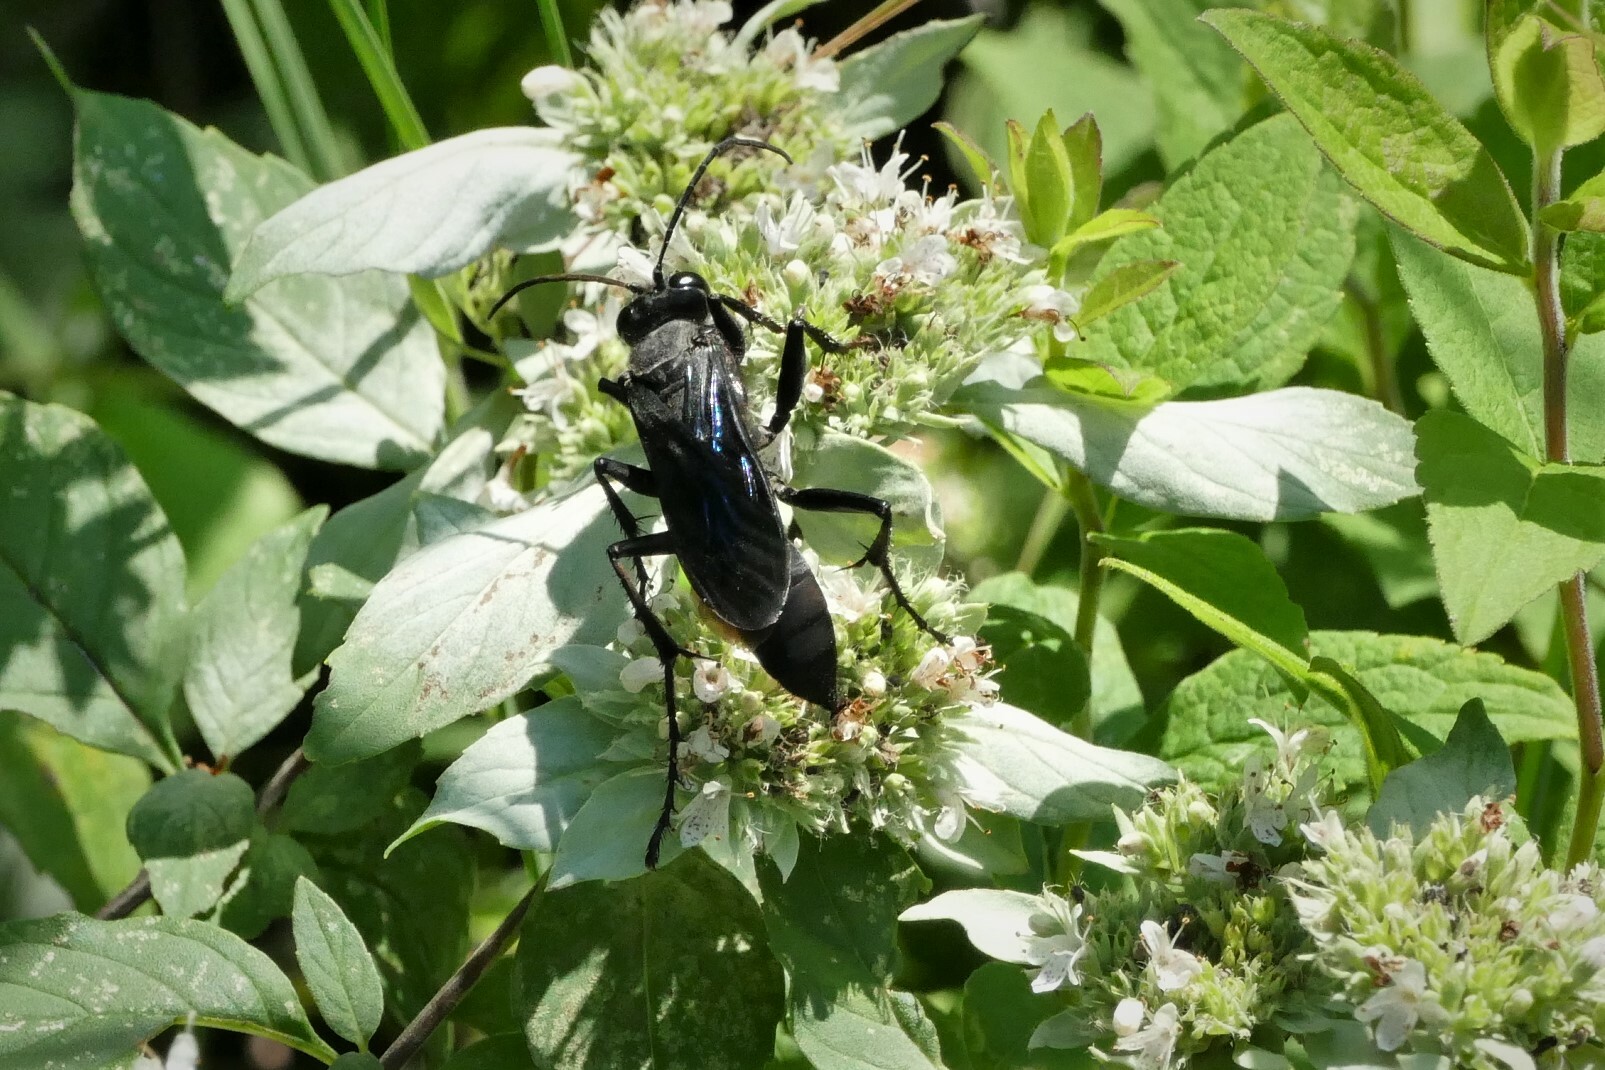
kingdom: Animalia
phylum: Arthropoda
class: Insecta
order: Hymenoptera
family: Sphecidae
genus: Sphex
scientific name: Sphex pensylvanicus
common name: Great black digger wasp
